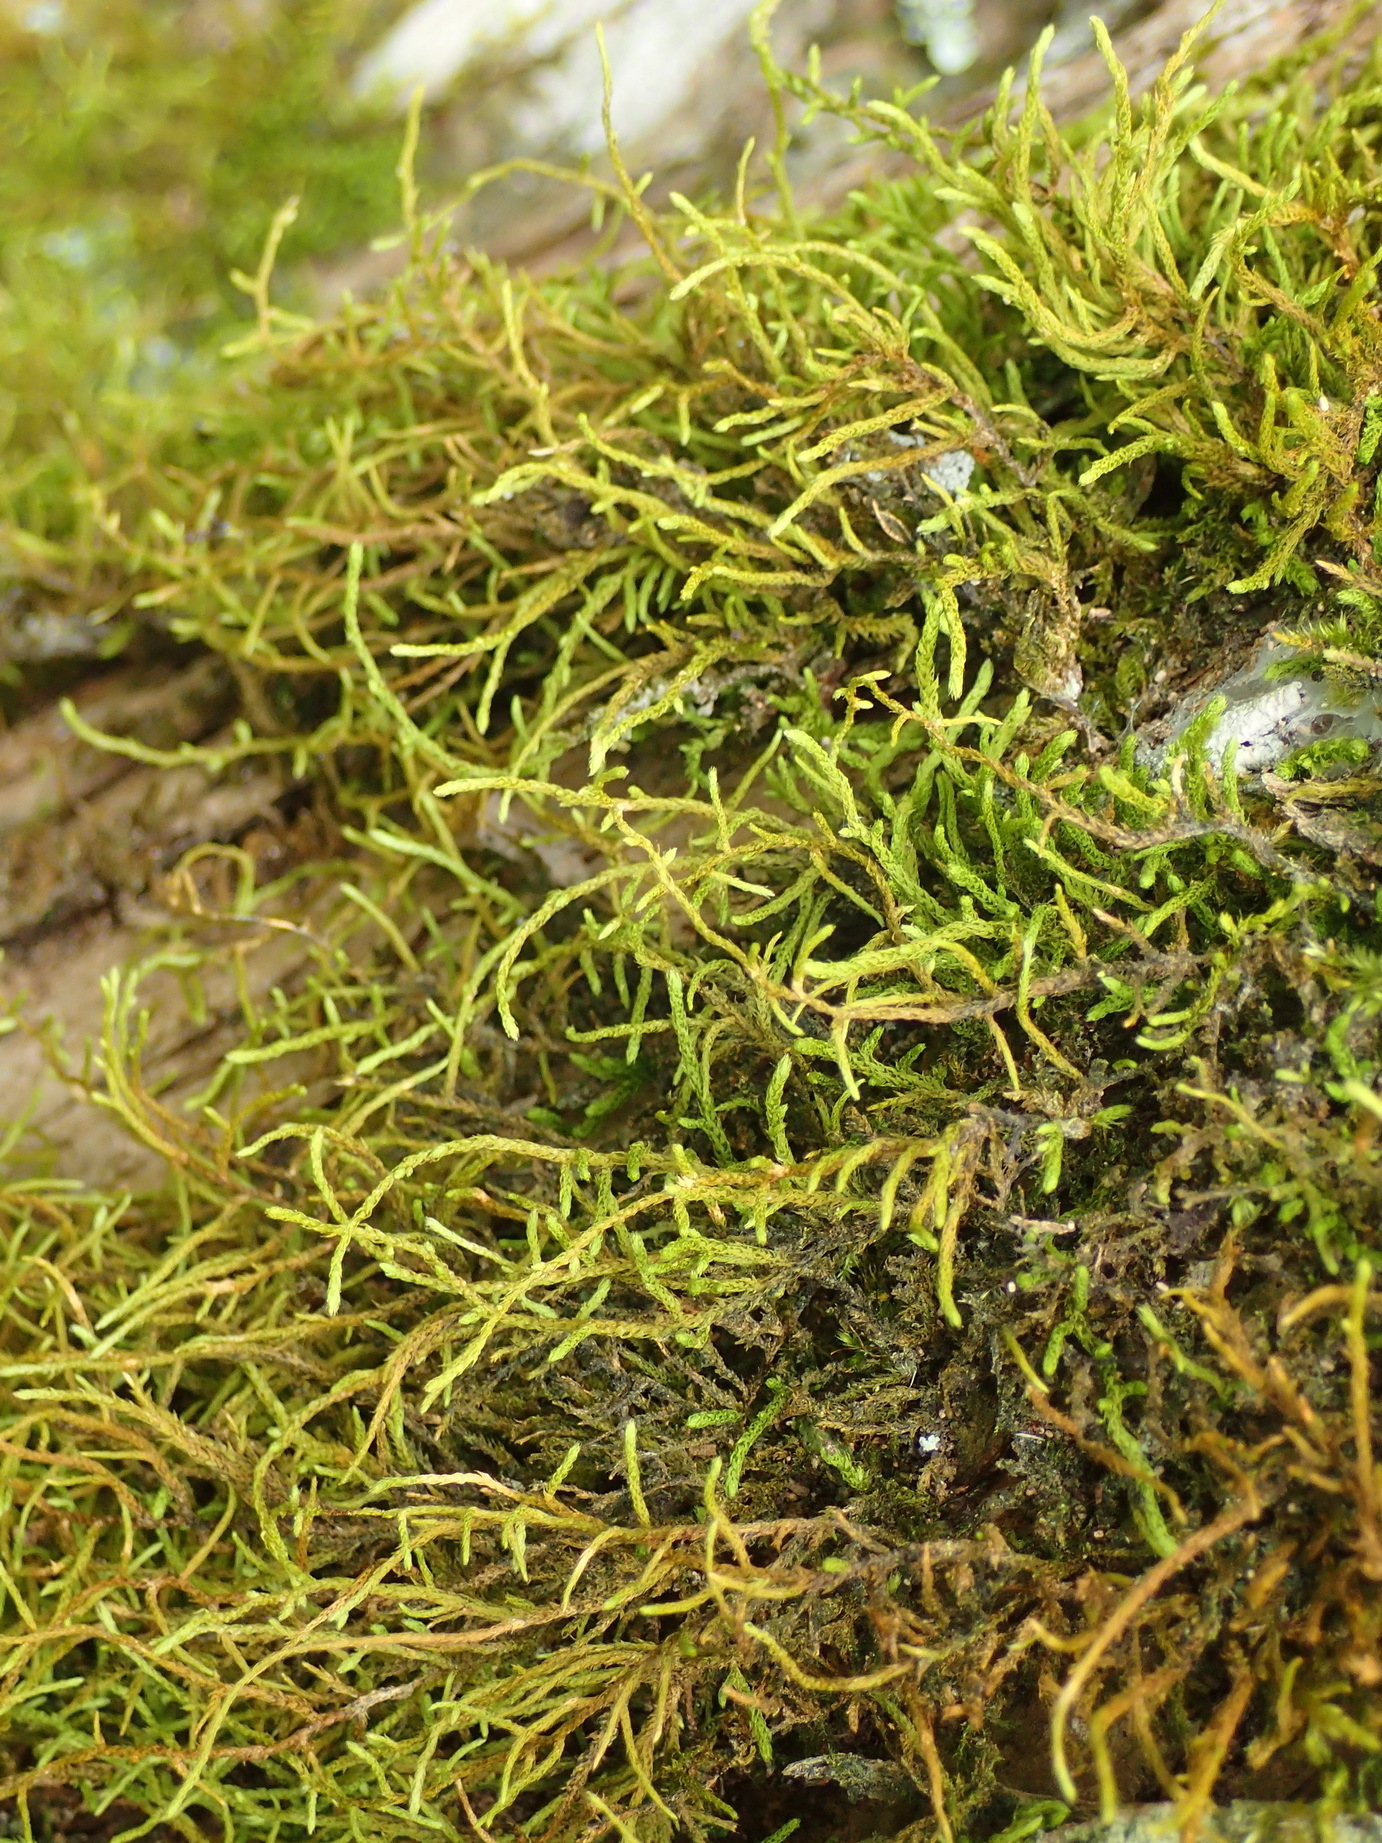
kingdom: Plantae
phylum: Bryophyta
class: Bryopsida
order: Hypnales
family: Meteoriaceae
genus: Papillaria
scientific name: Papillaria africana
